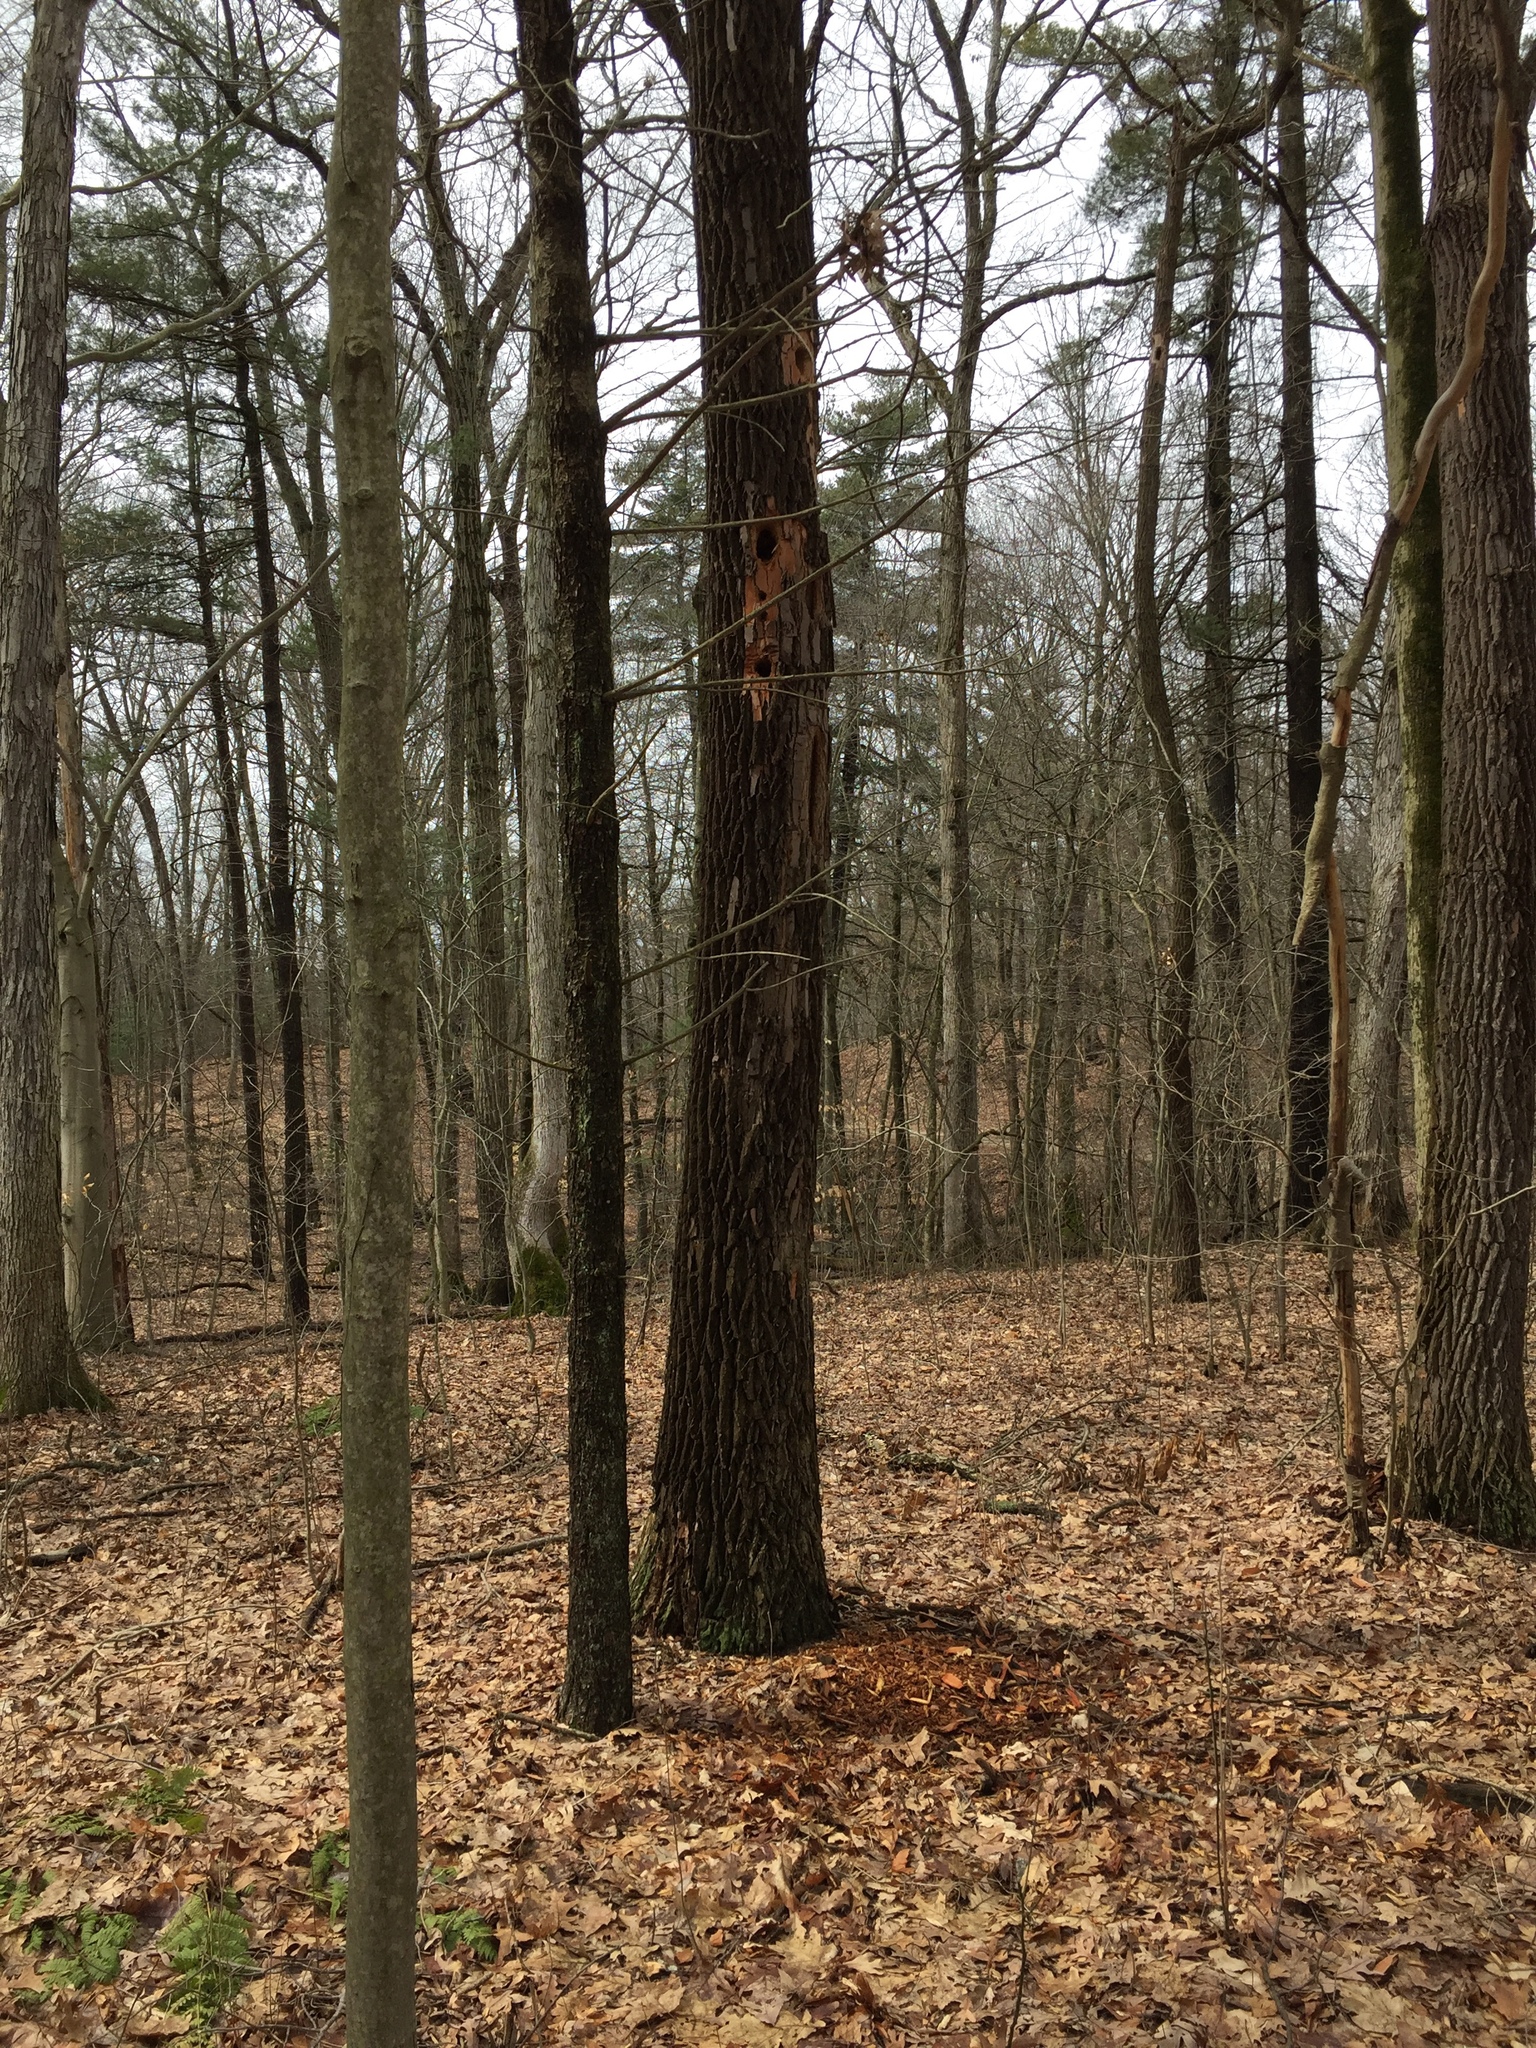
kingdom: Plantae
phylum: Tracheophyta
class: Magnoliopsida
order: Laurales
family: Lauraceae
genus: Sassafras
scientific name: Sassafras albidum
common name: Sassafras
